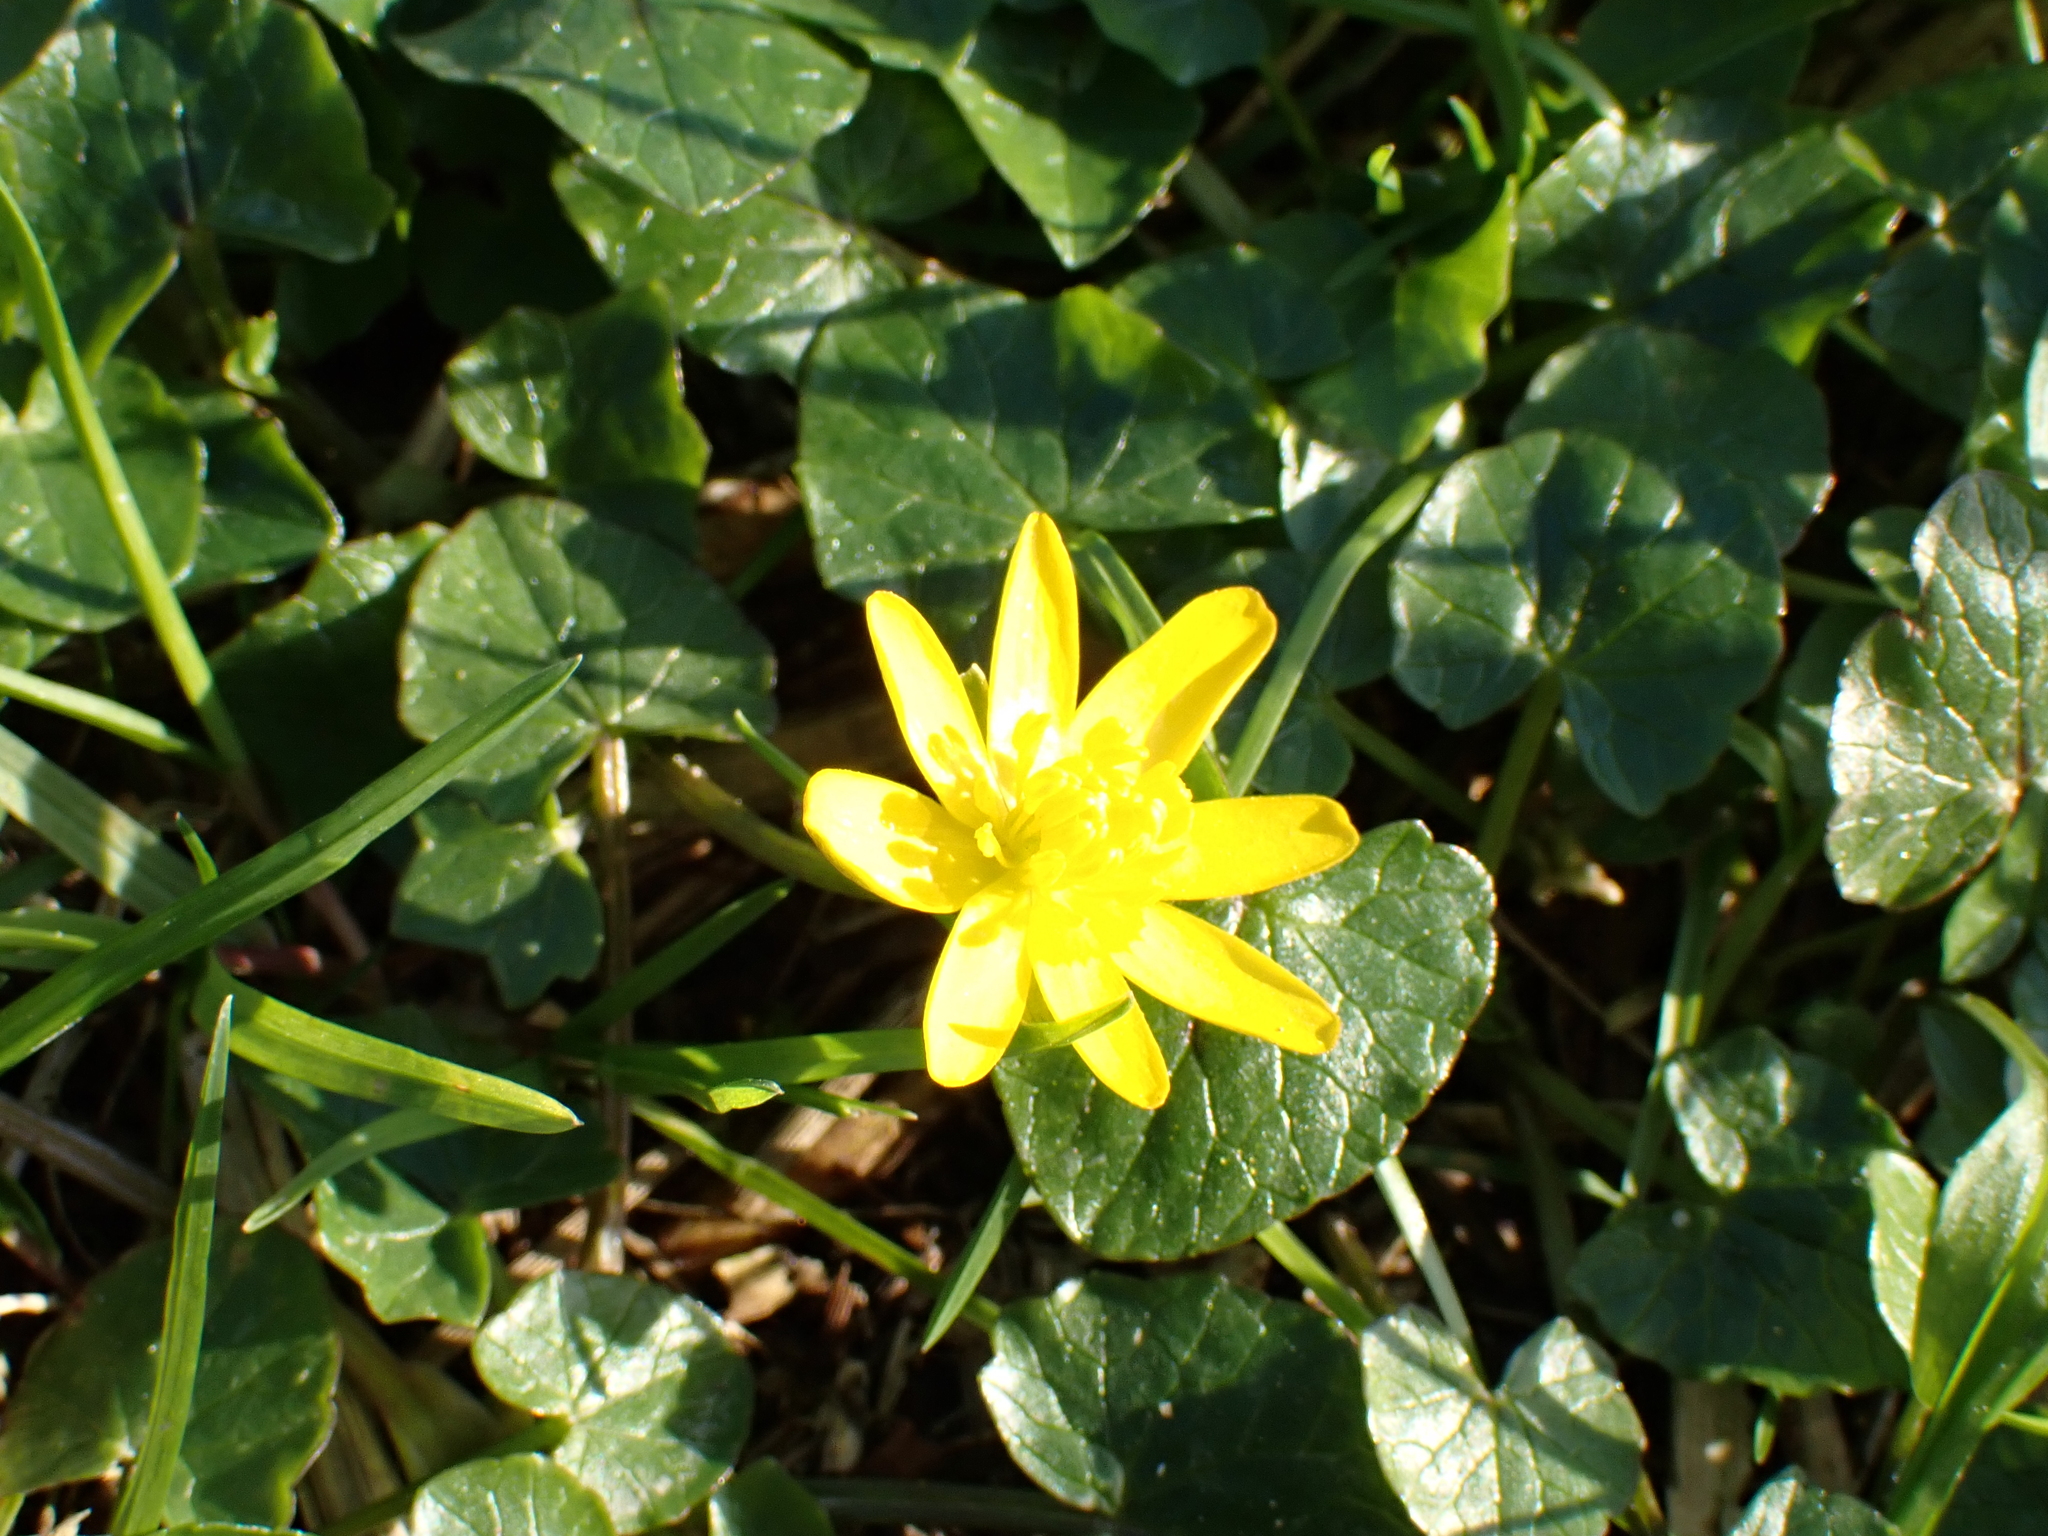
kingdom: Plantae
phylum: Tracheophyta
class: Magnoliopsida
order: Ranunculales
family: Ranunculaceae
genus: Ficaria
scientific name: Ficaria verna
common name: Lesser celandine
